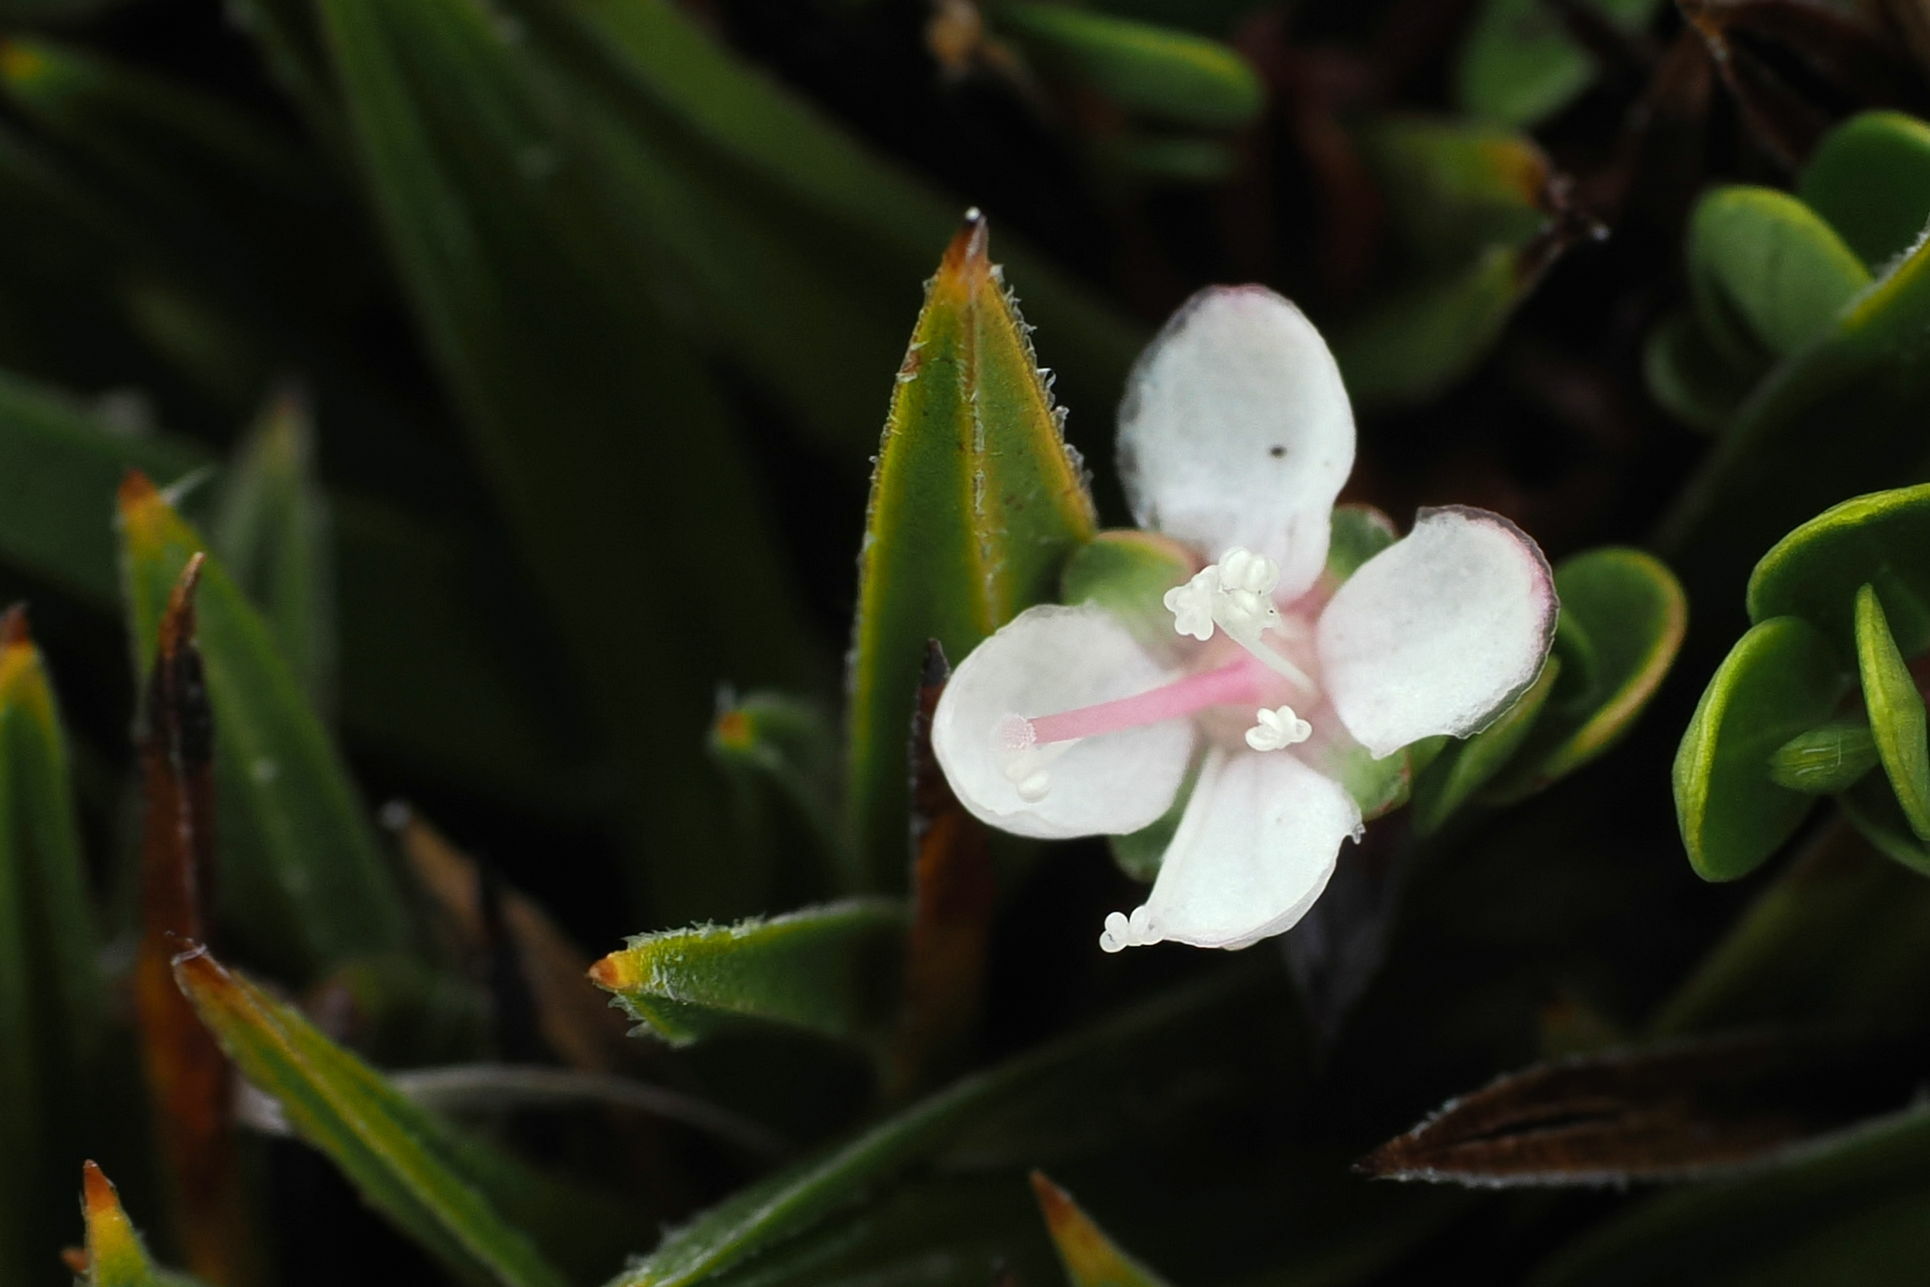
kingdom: Plantae
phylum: Tracheophyta
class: Magnoliopsida
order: Myrtales
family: Myrtaceae
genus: Myrteola
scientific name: Myrteola nummularia
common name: Cranberry-myrtle
